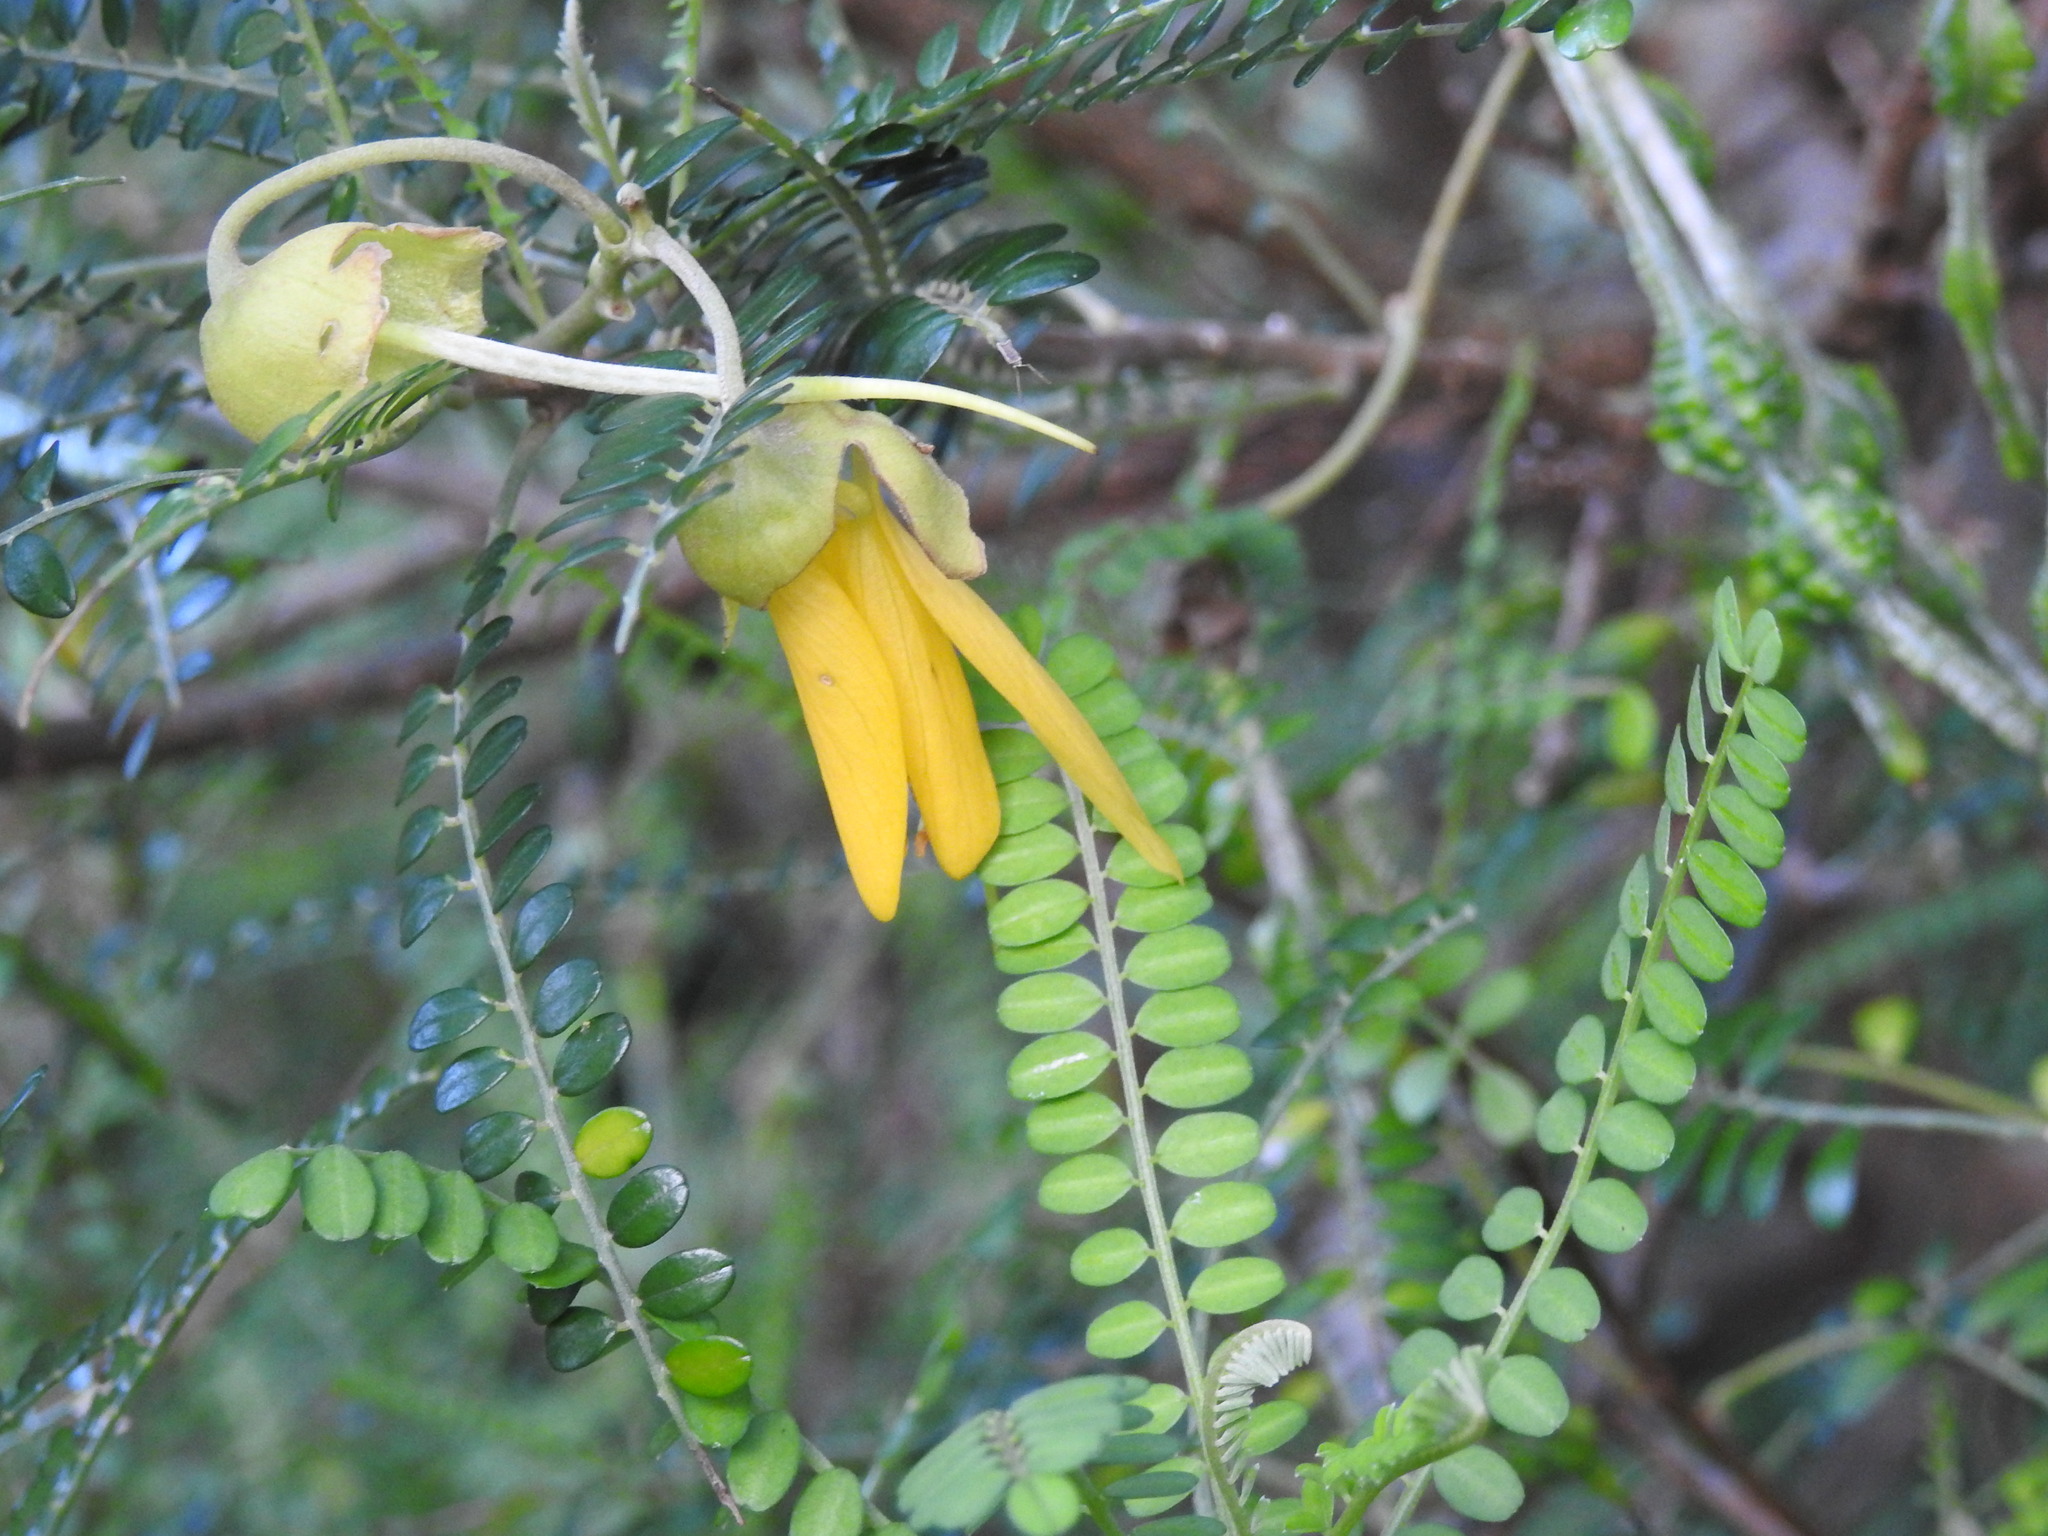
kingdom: Plantae
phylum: Tracheophyta
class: Magnoliopsida
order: Fabales
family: Fabaceae
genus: Sophora
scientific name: Sophora microphylla
